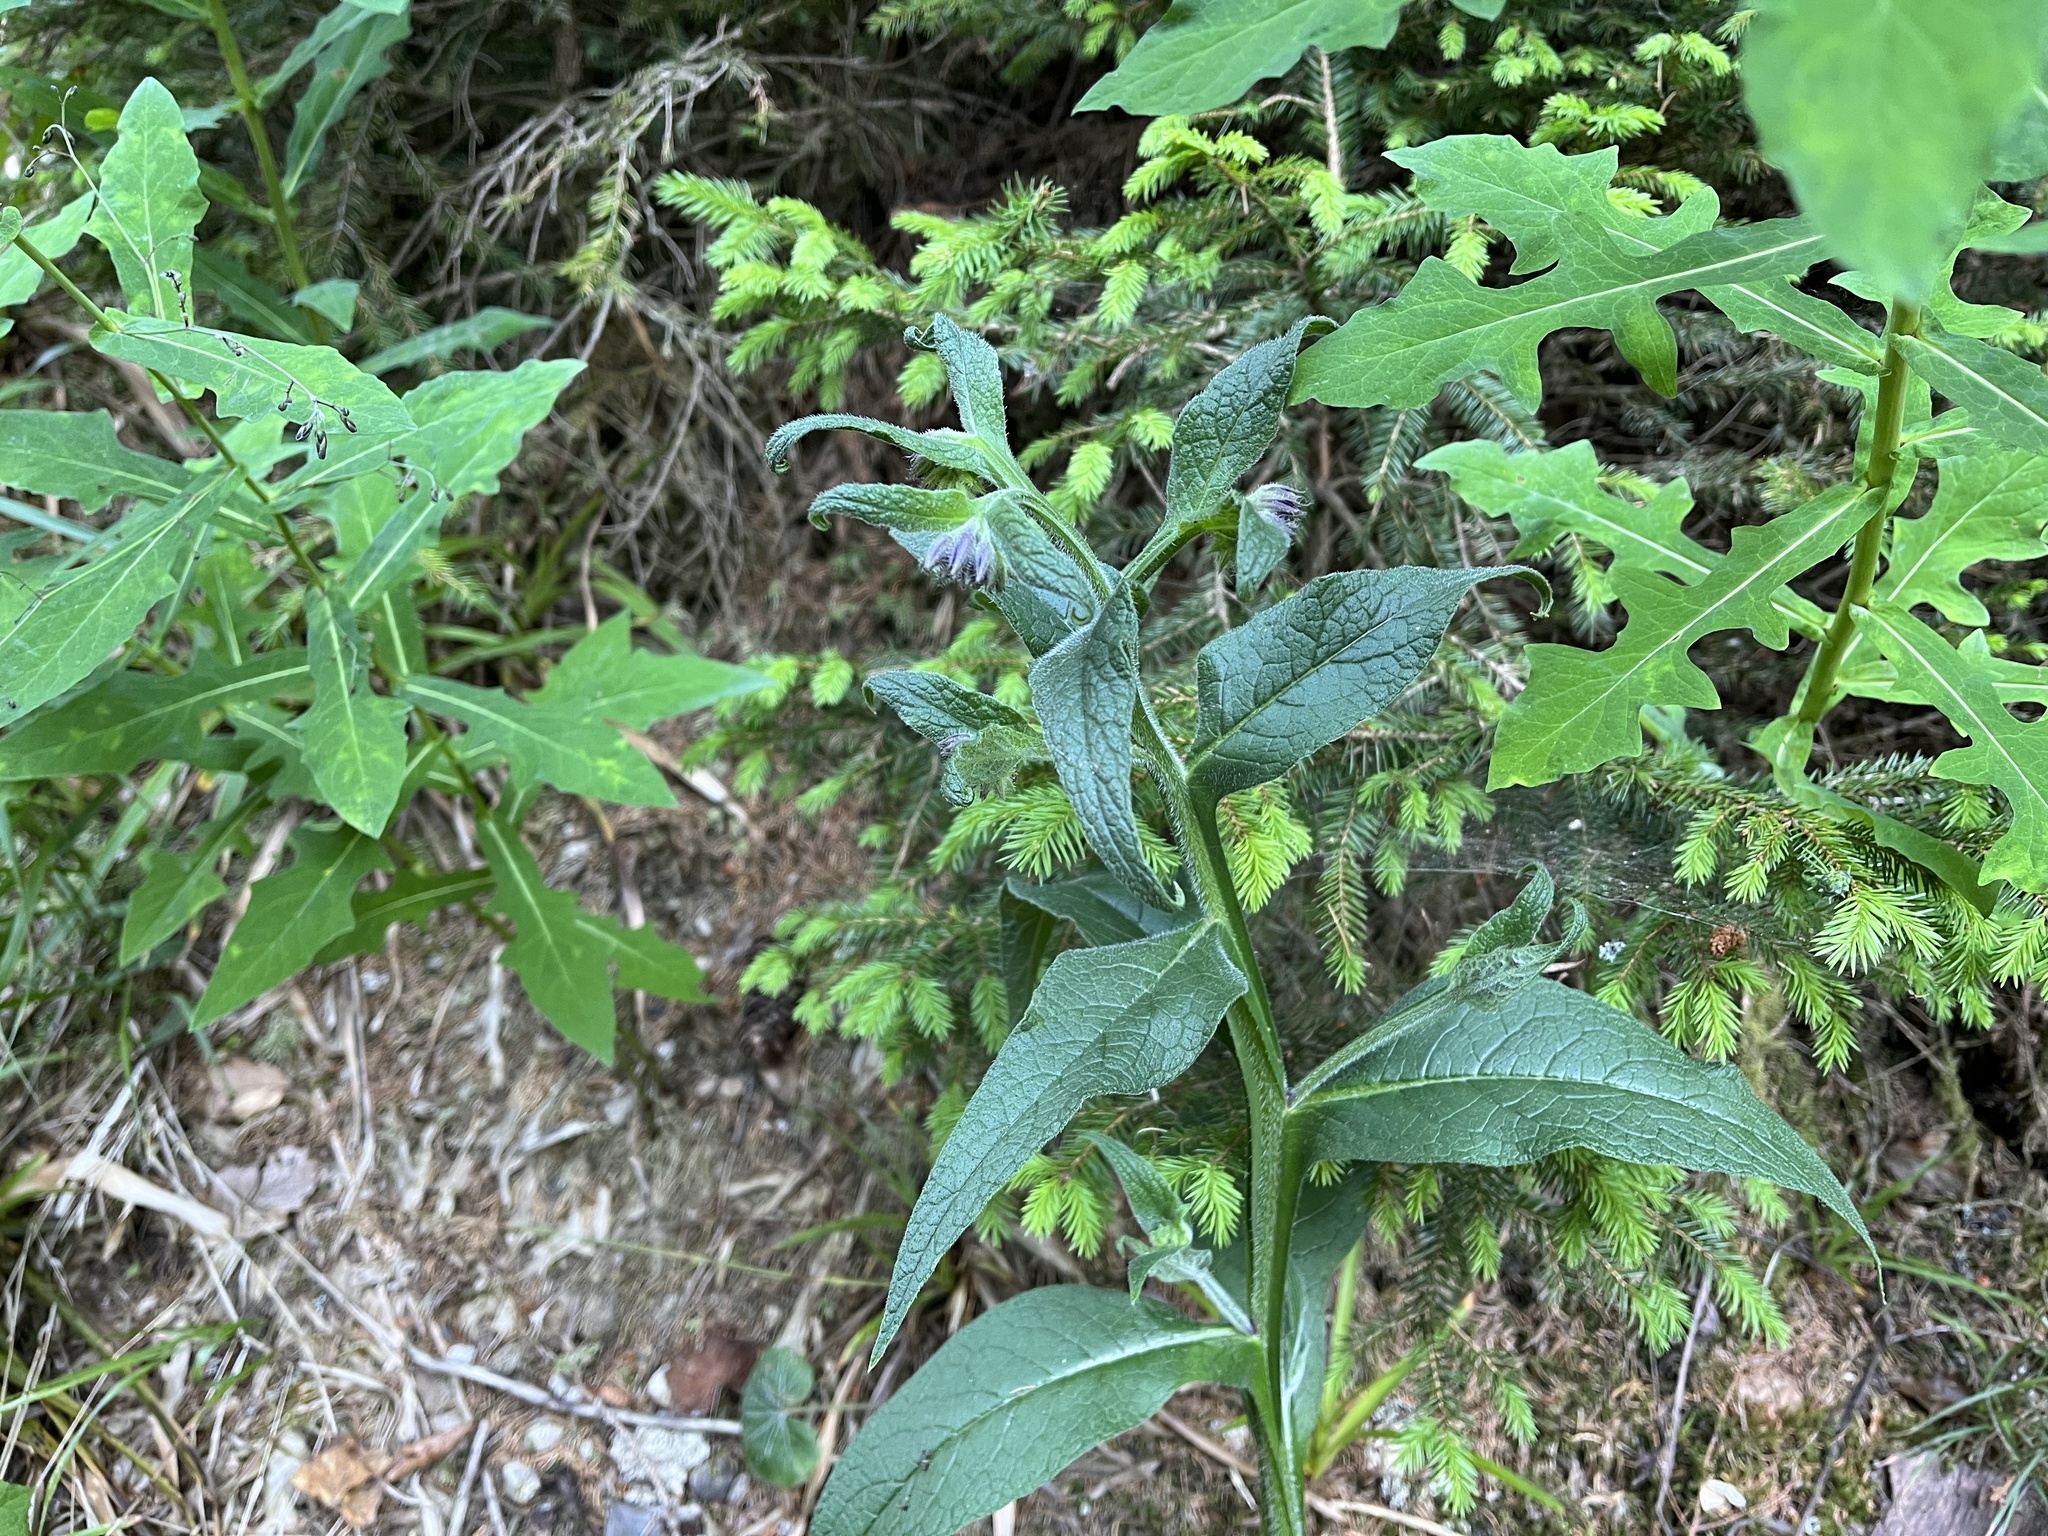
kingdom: Plantae
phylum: Tracheophyta
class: Magnoliopsida
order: Boraginales
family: Boraginaceae
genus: Symphytum
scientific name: Symphytum officinale
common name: Common comfrey
